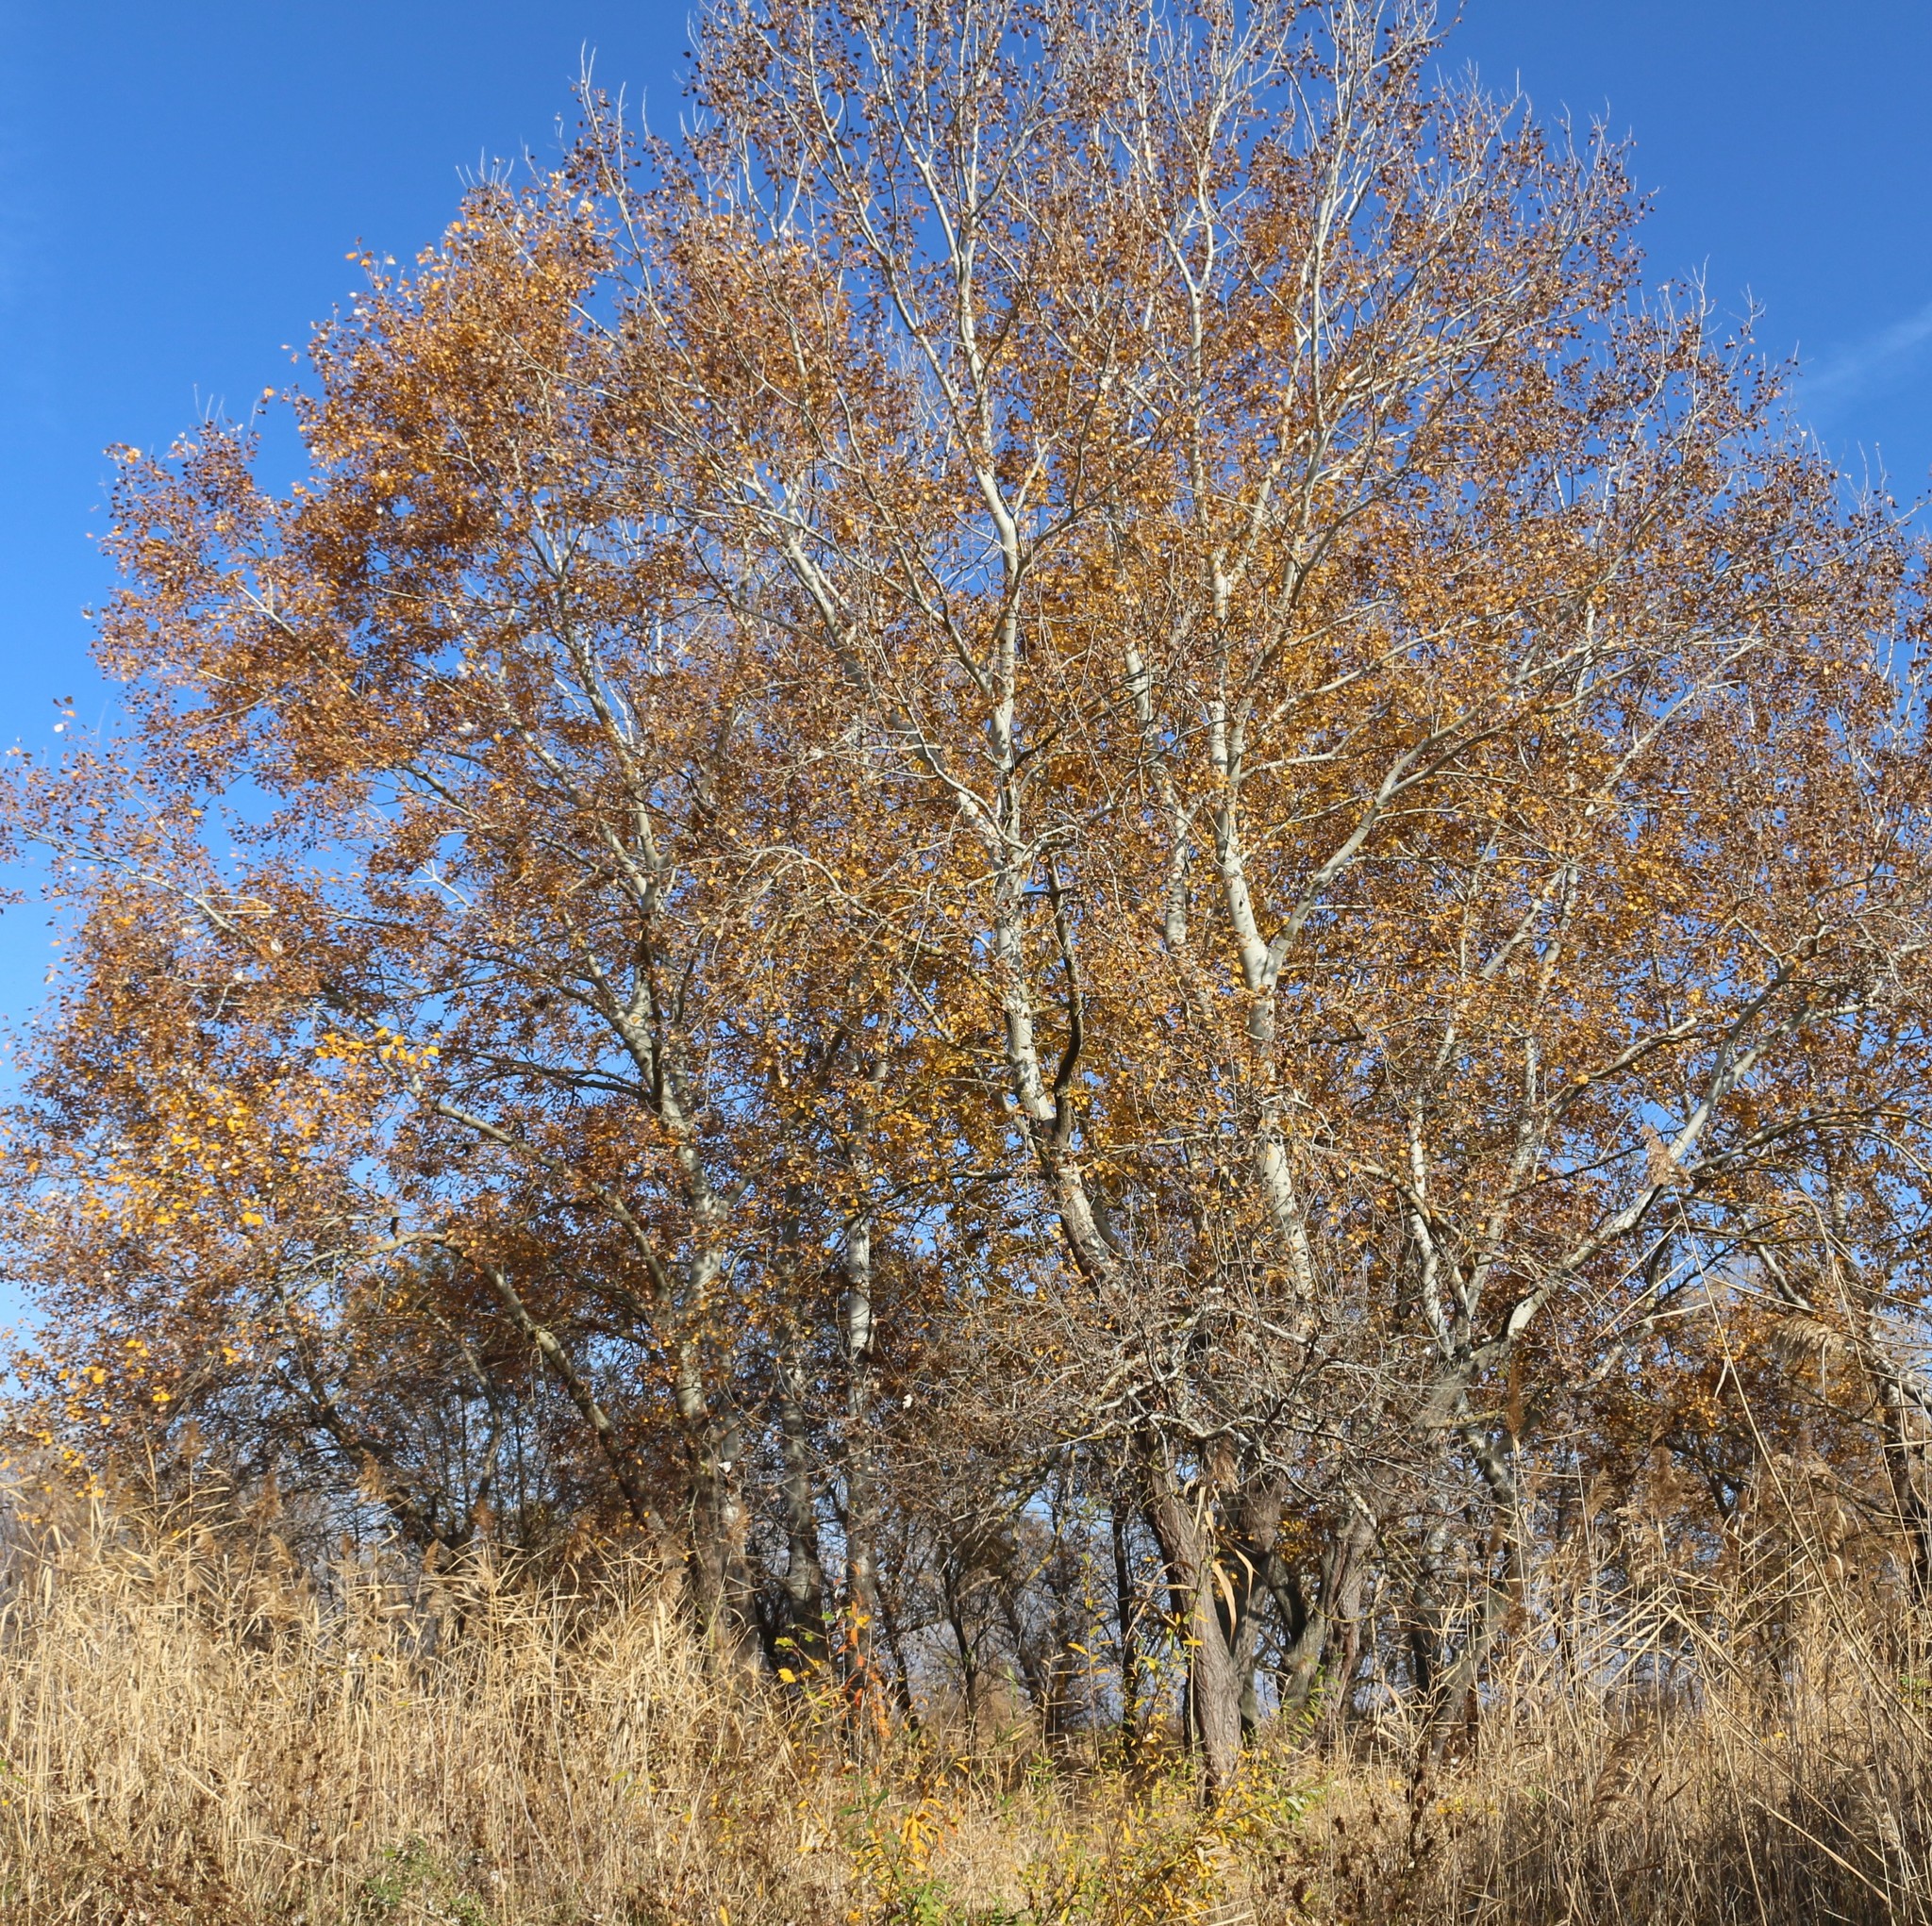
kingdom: Plantae
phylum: Tracheophyta
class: Magnoliopsida
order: Malpighiales
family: Salicaceae
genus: Populus
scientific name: Populus alba
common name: White poplar
